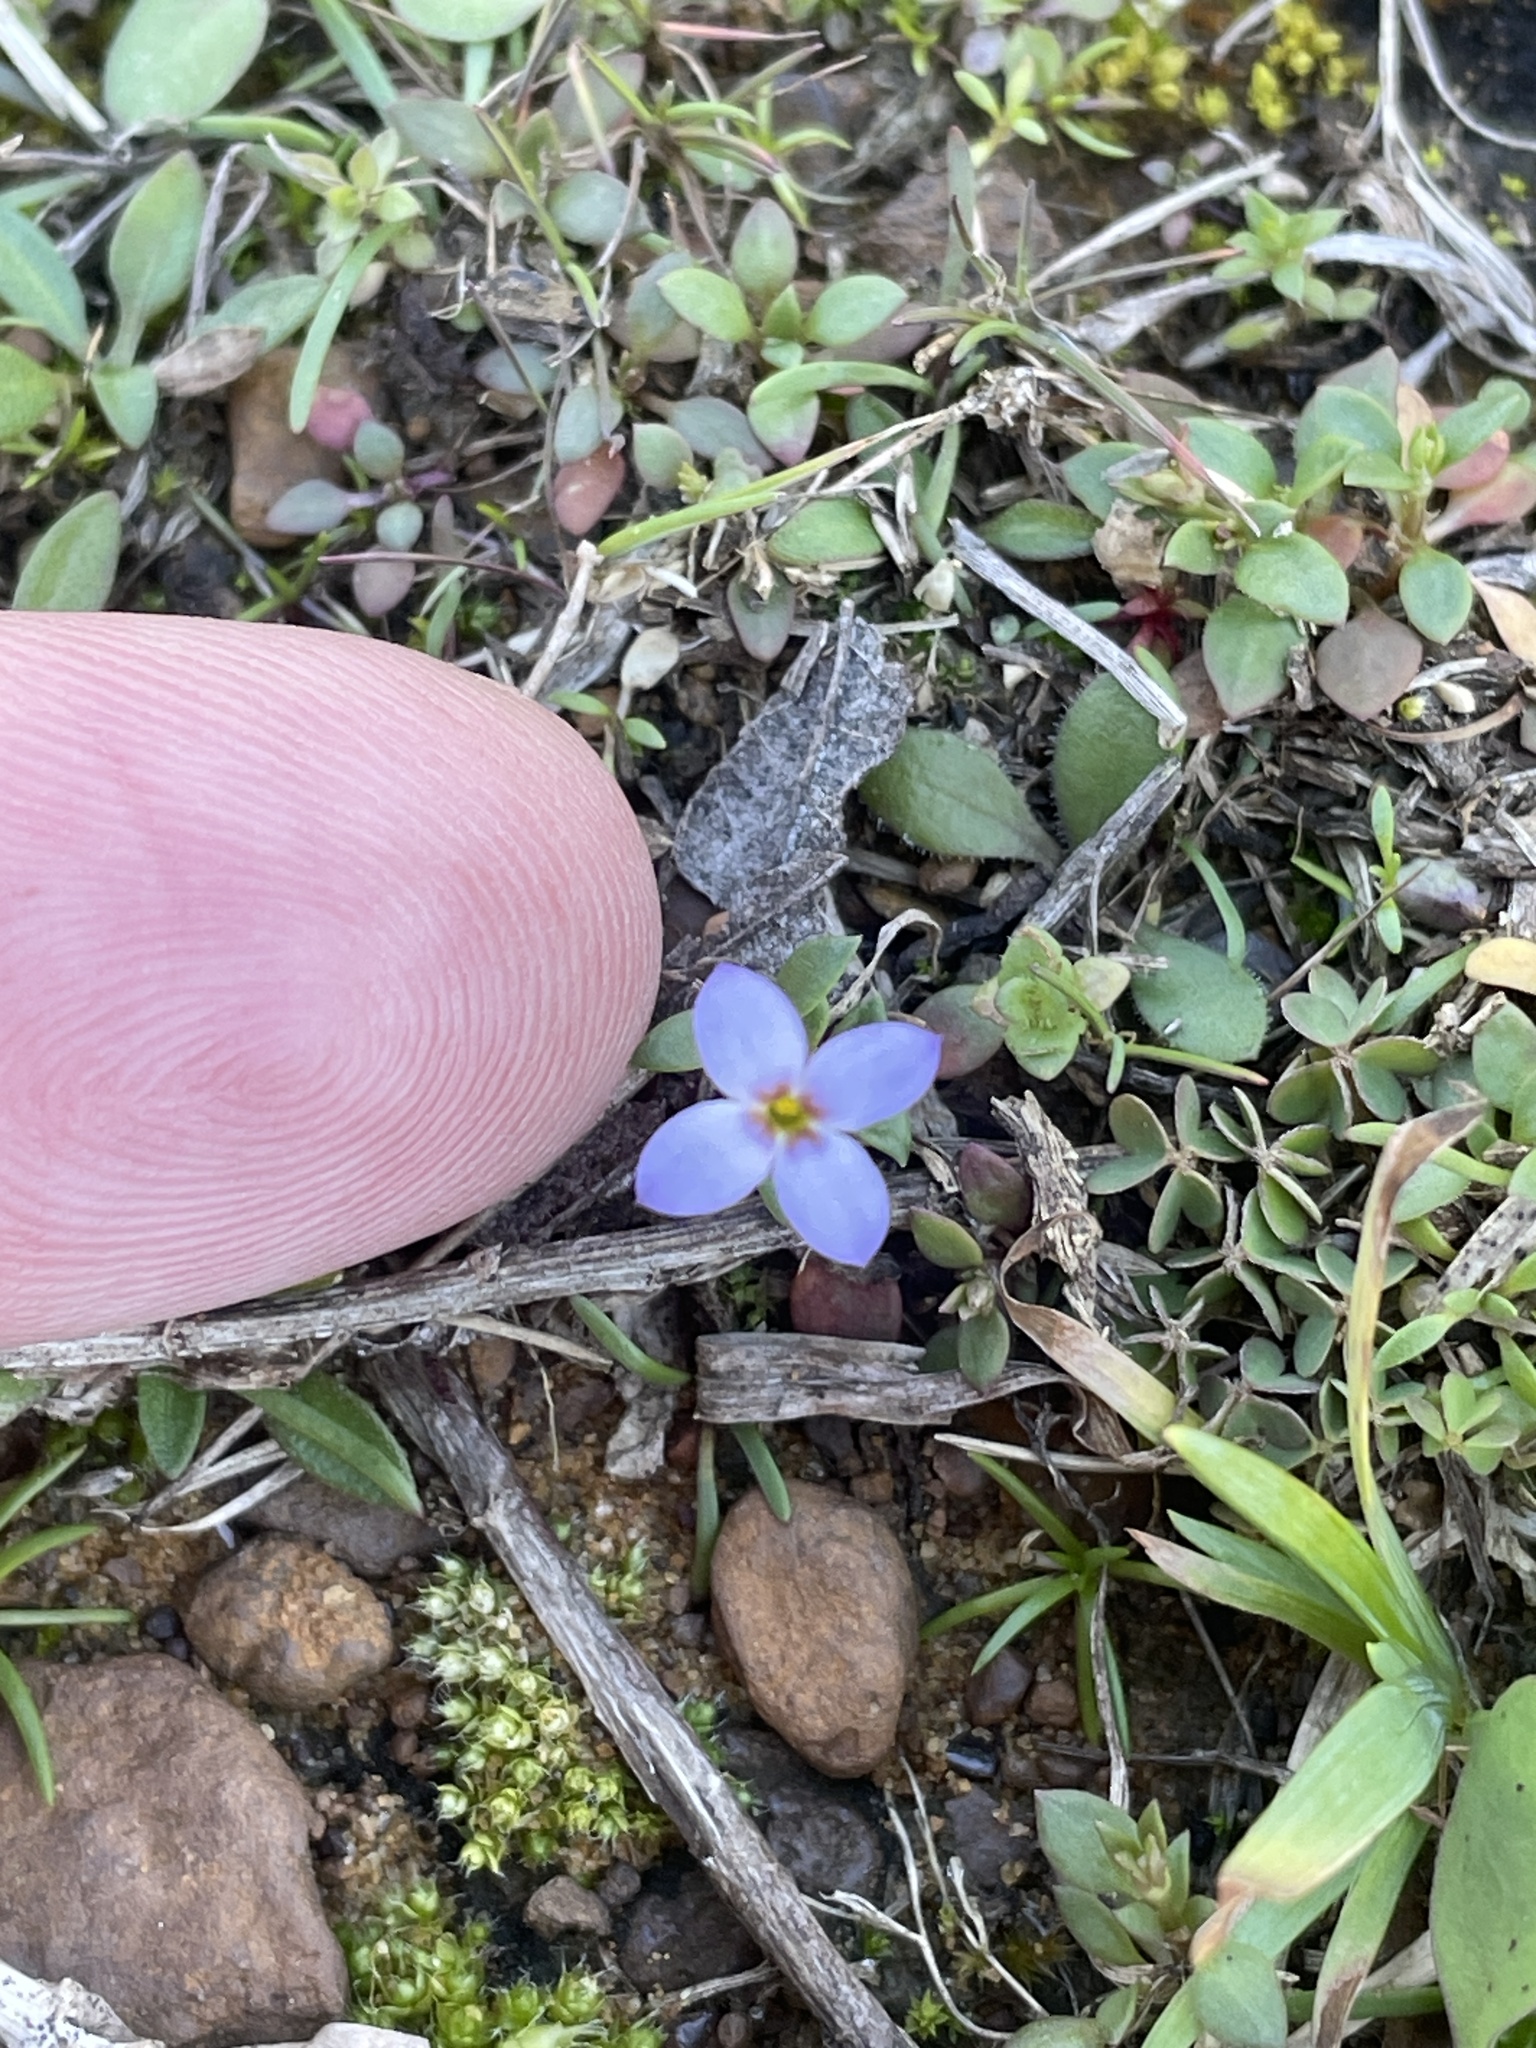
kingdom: Plantae
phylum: Tracheophyta
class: Magnoliopsida
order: Gentianales
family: Rubiaceae
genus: Houstonia
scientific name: Houstonia pusilla
